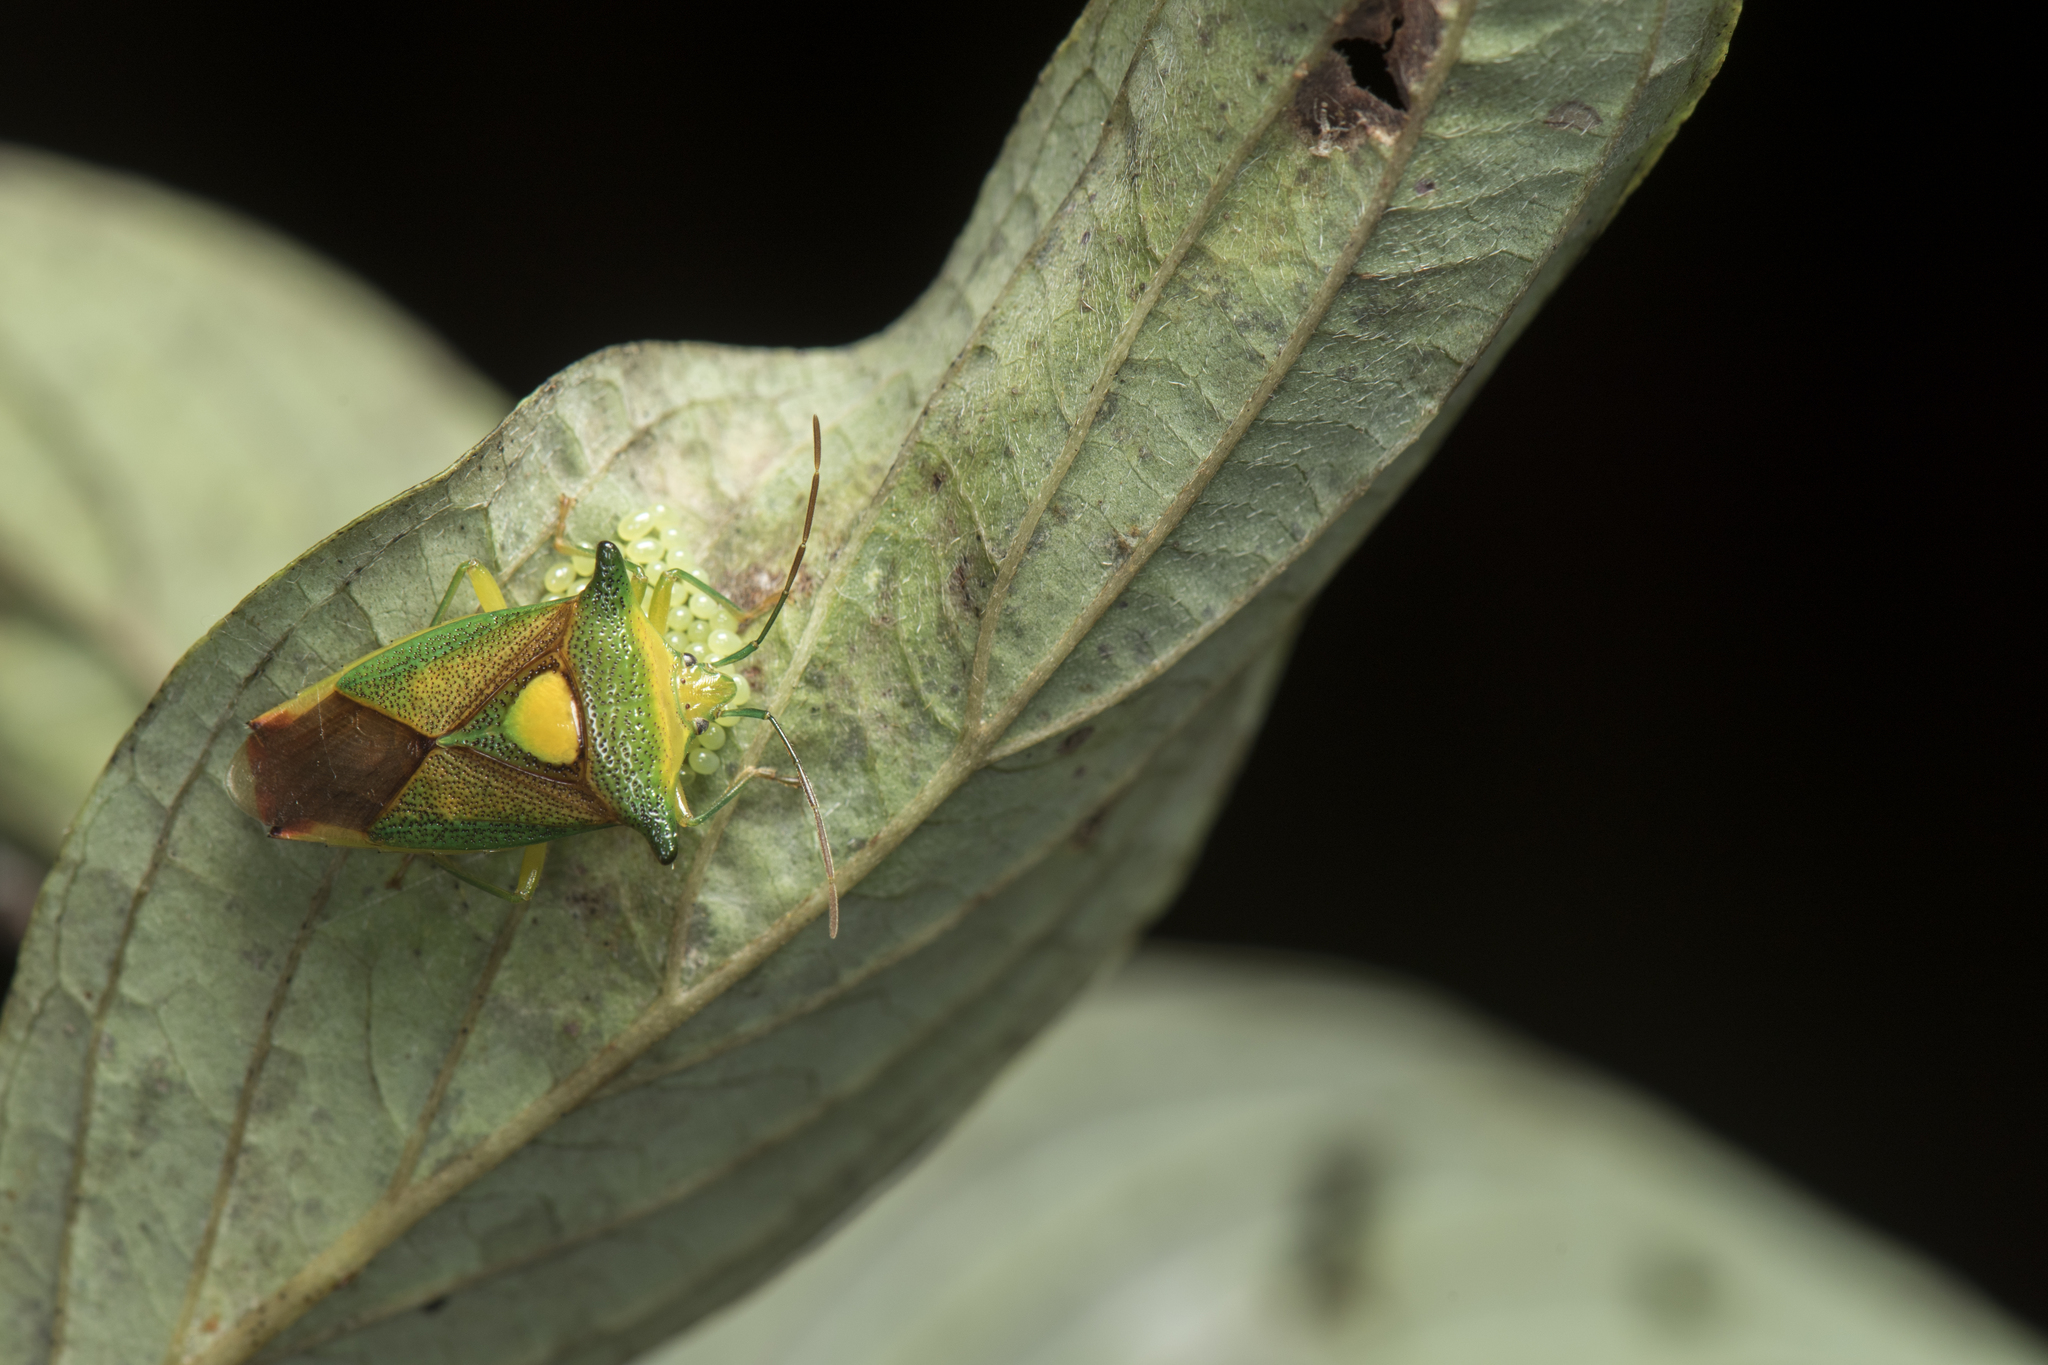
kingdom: Animalia
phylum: Arthropoda
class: Insecta
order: Hemiptera
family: Acanthosomatidae
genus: Sastragala
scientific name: Sastragala scutellata
